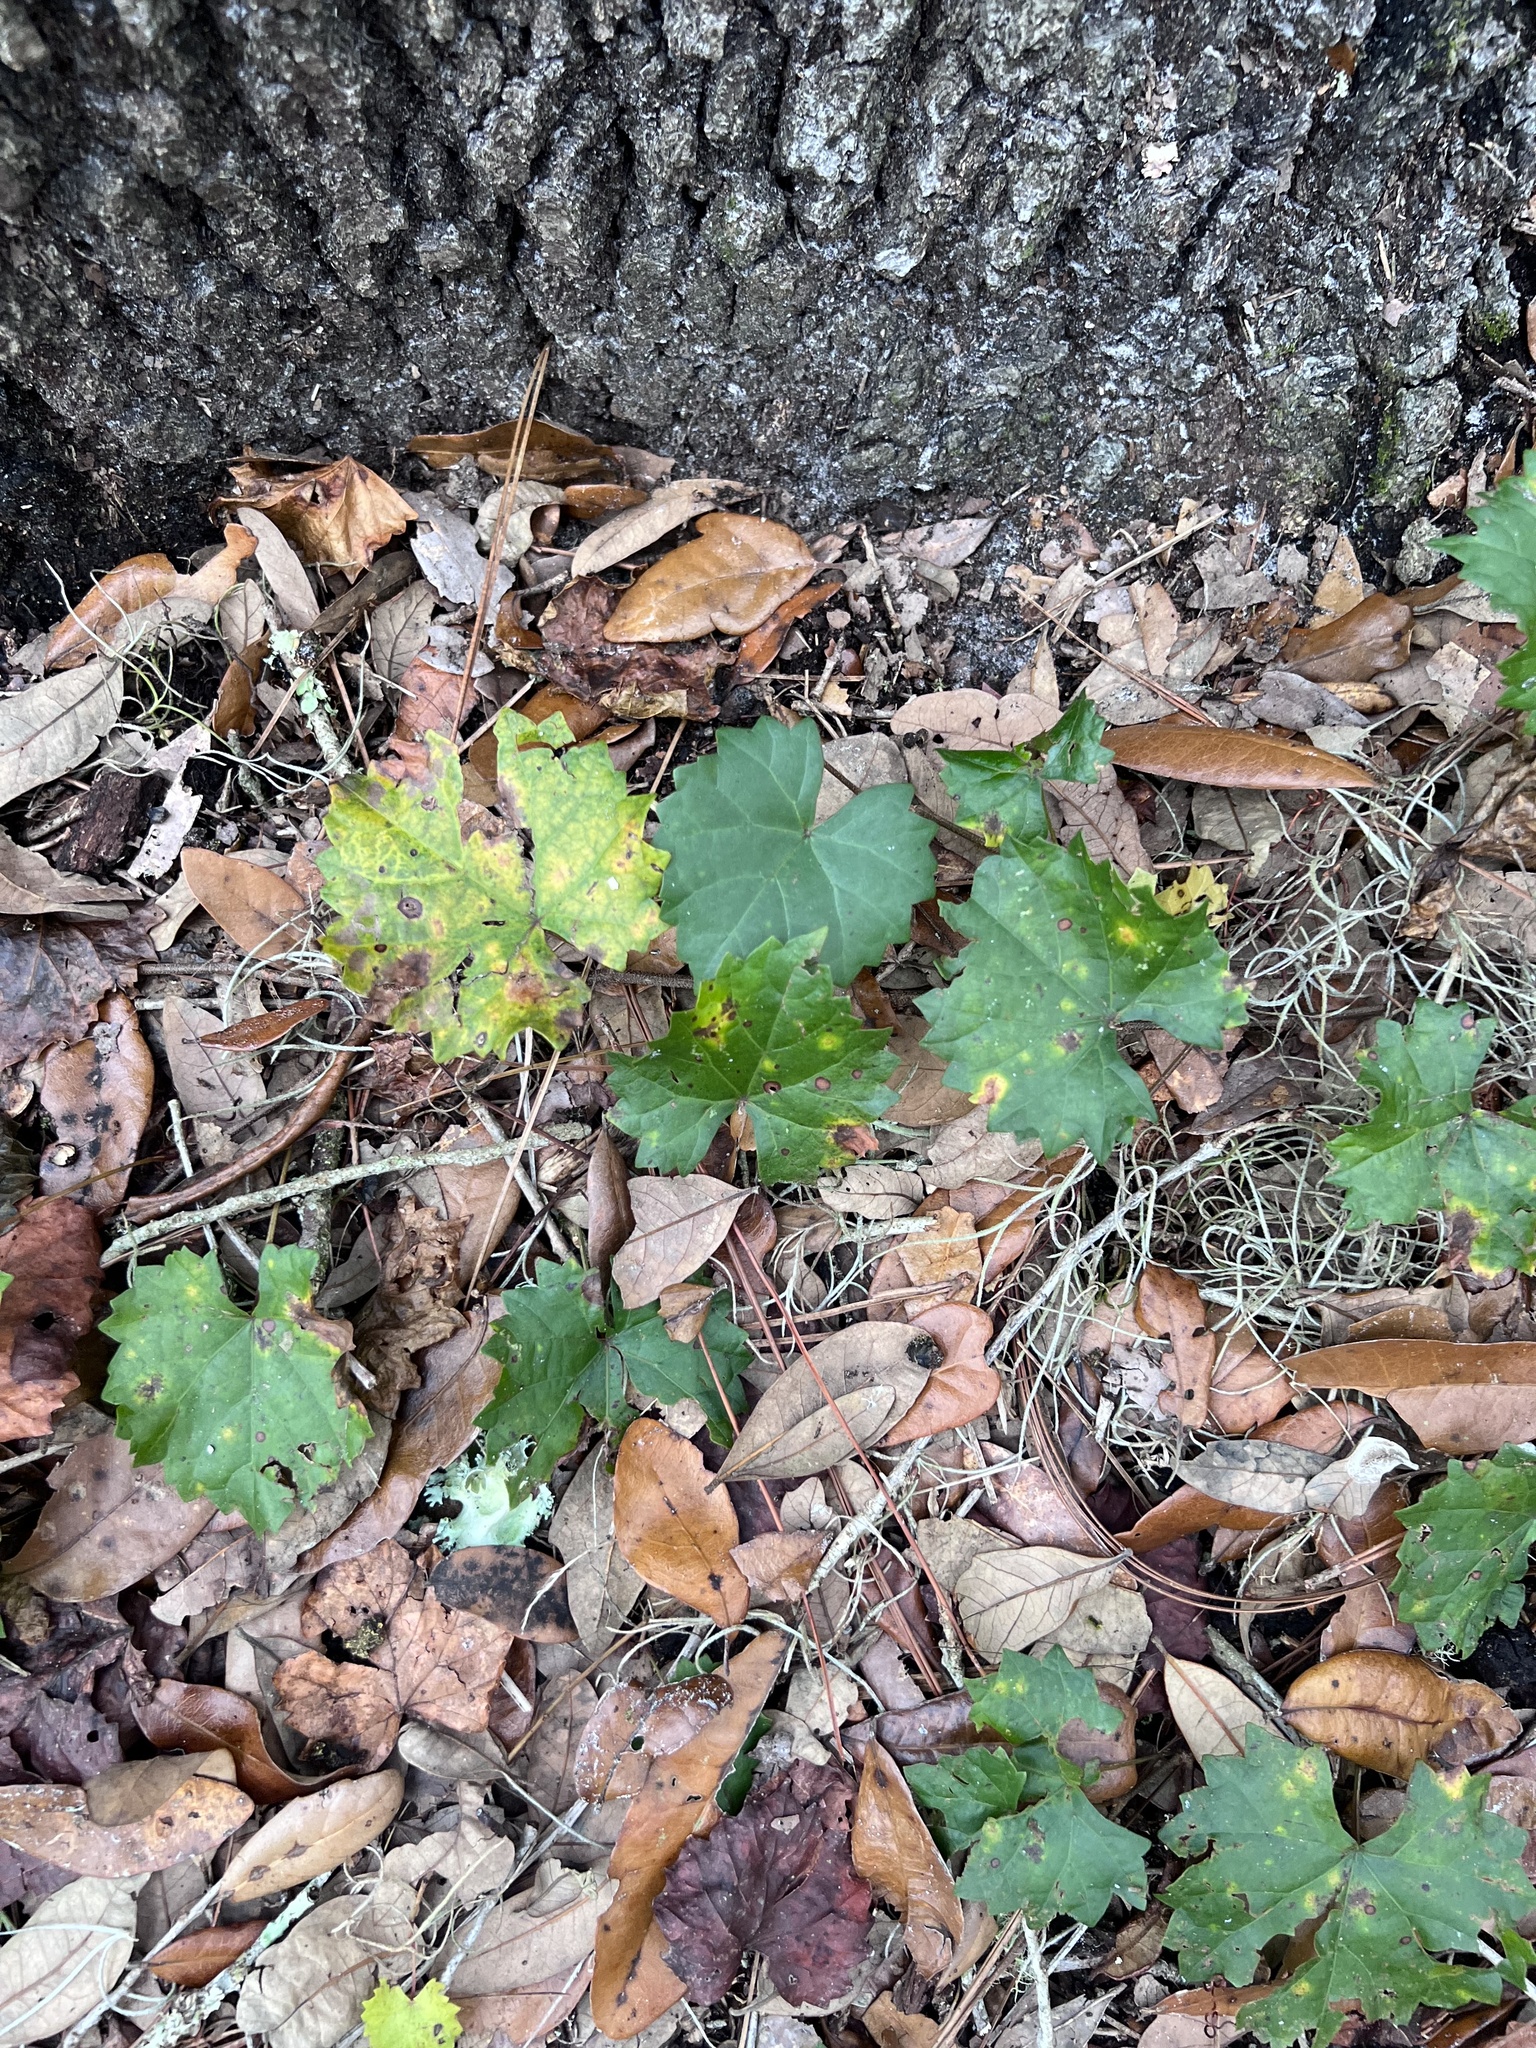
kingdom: Plantae
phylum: Tracheophyta
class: Magnoliopsida
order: Vitales
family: Vitaceae
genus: Vitis
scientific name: Vitis rotundifolia
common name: Muscadine grape
